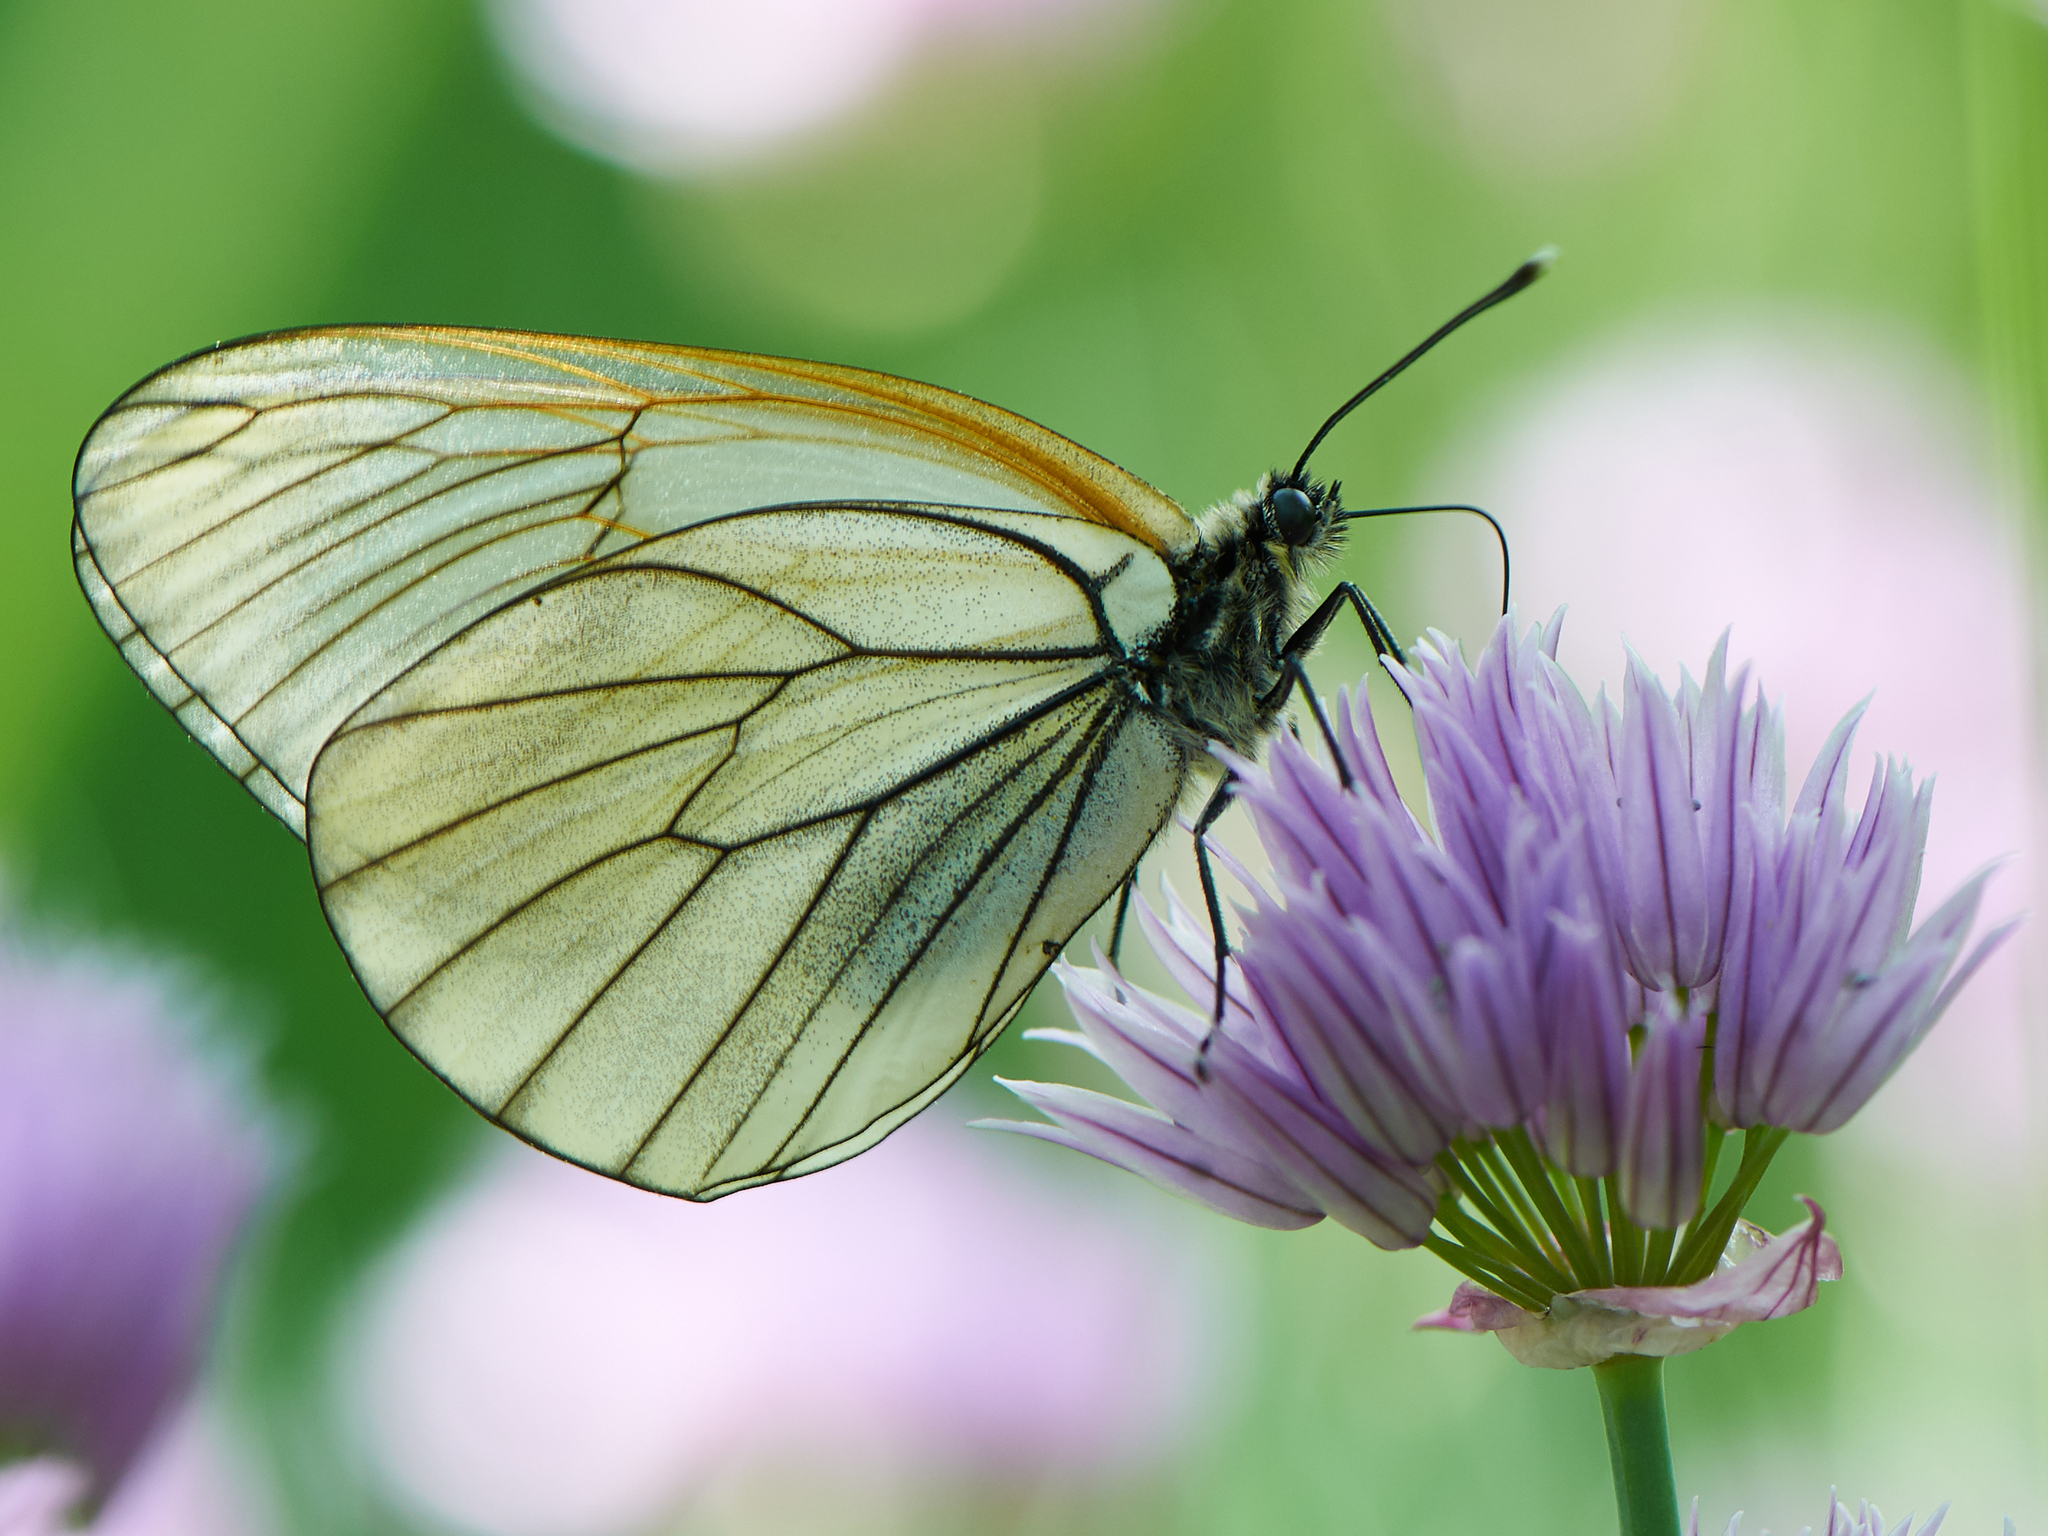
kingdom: Animalia
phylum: Arthropoda
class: Insecta
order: Lepidoptera
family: Pieridae
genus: Aporia
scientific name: Aporia crataegi
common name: Black-veined white
